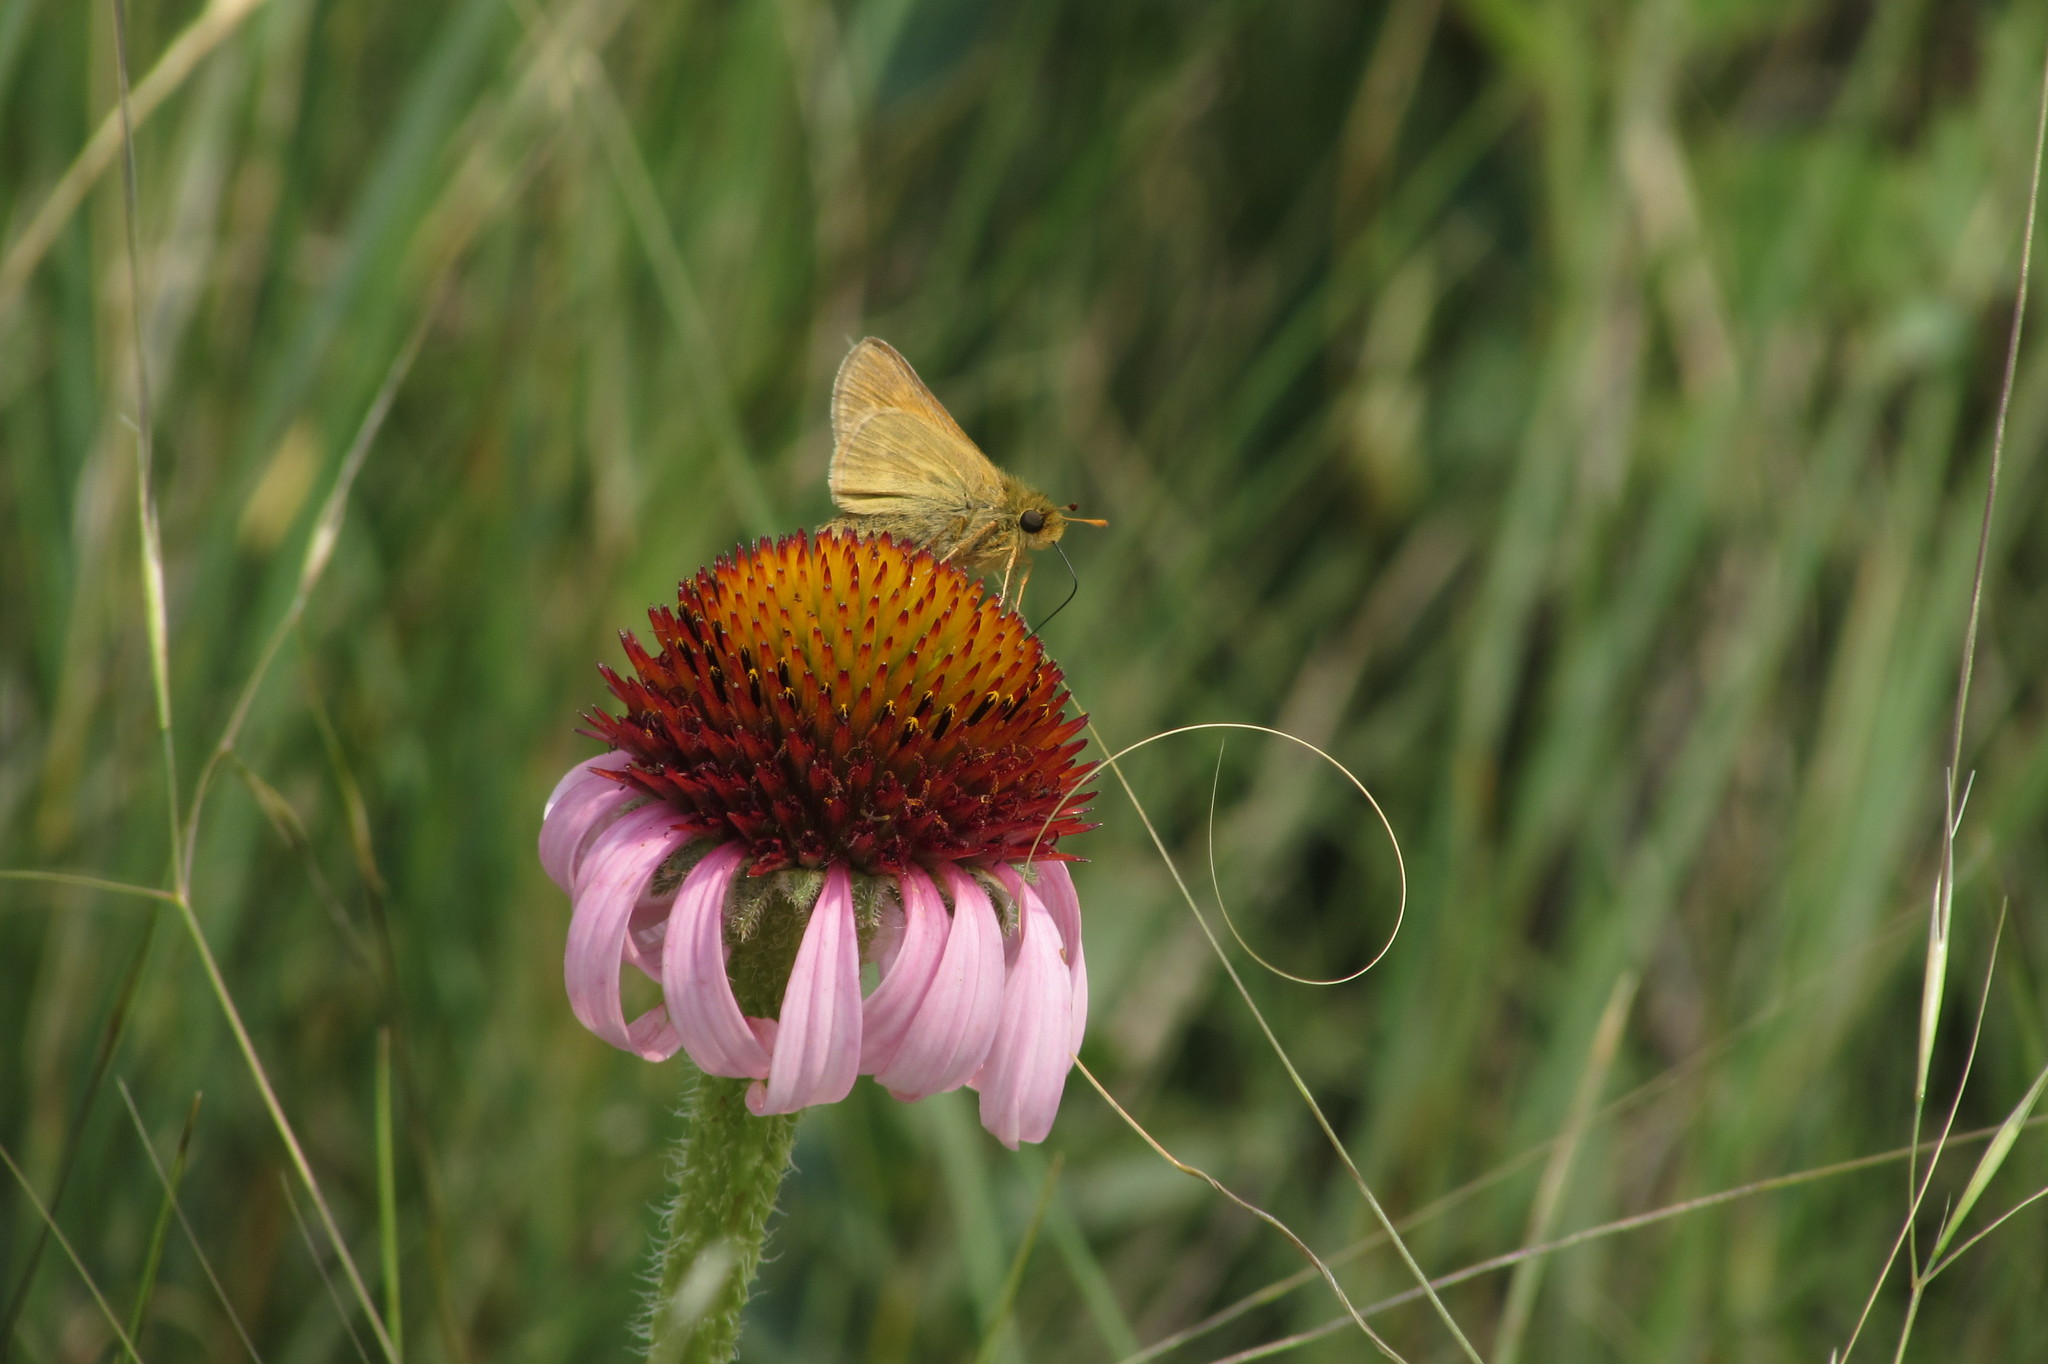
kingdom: Animalia
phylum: Arthropoda
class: Insecta
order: Lepidoptera
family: Hesperiidae
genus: Hesperia
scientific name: Hesperia dacotae
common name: Dakota skipper
